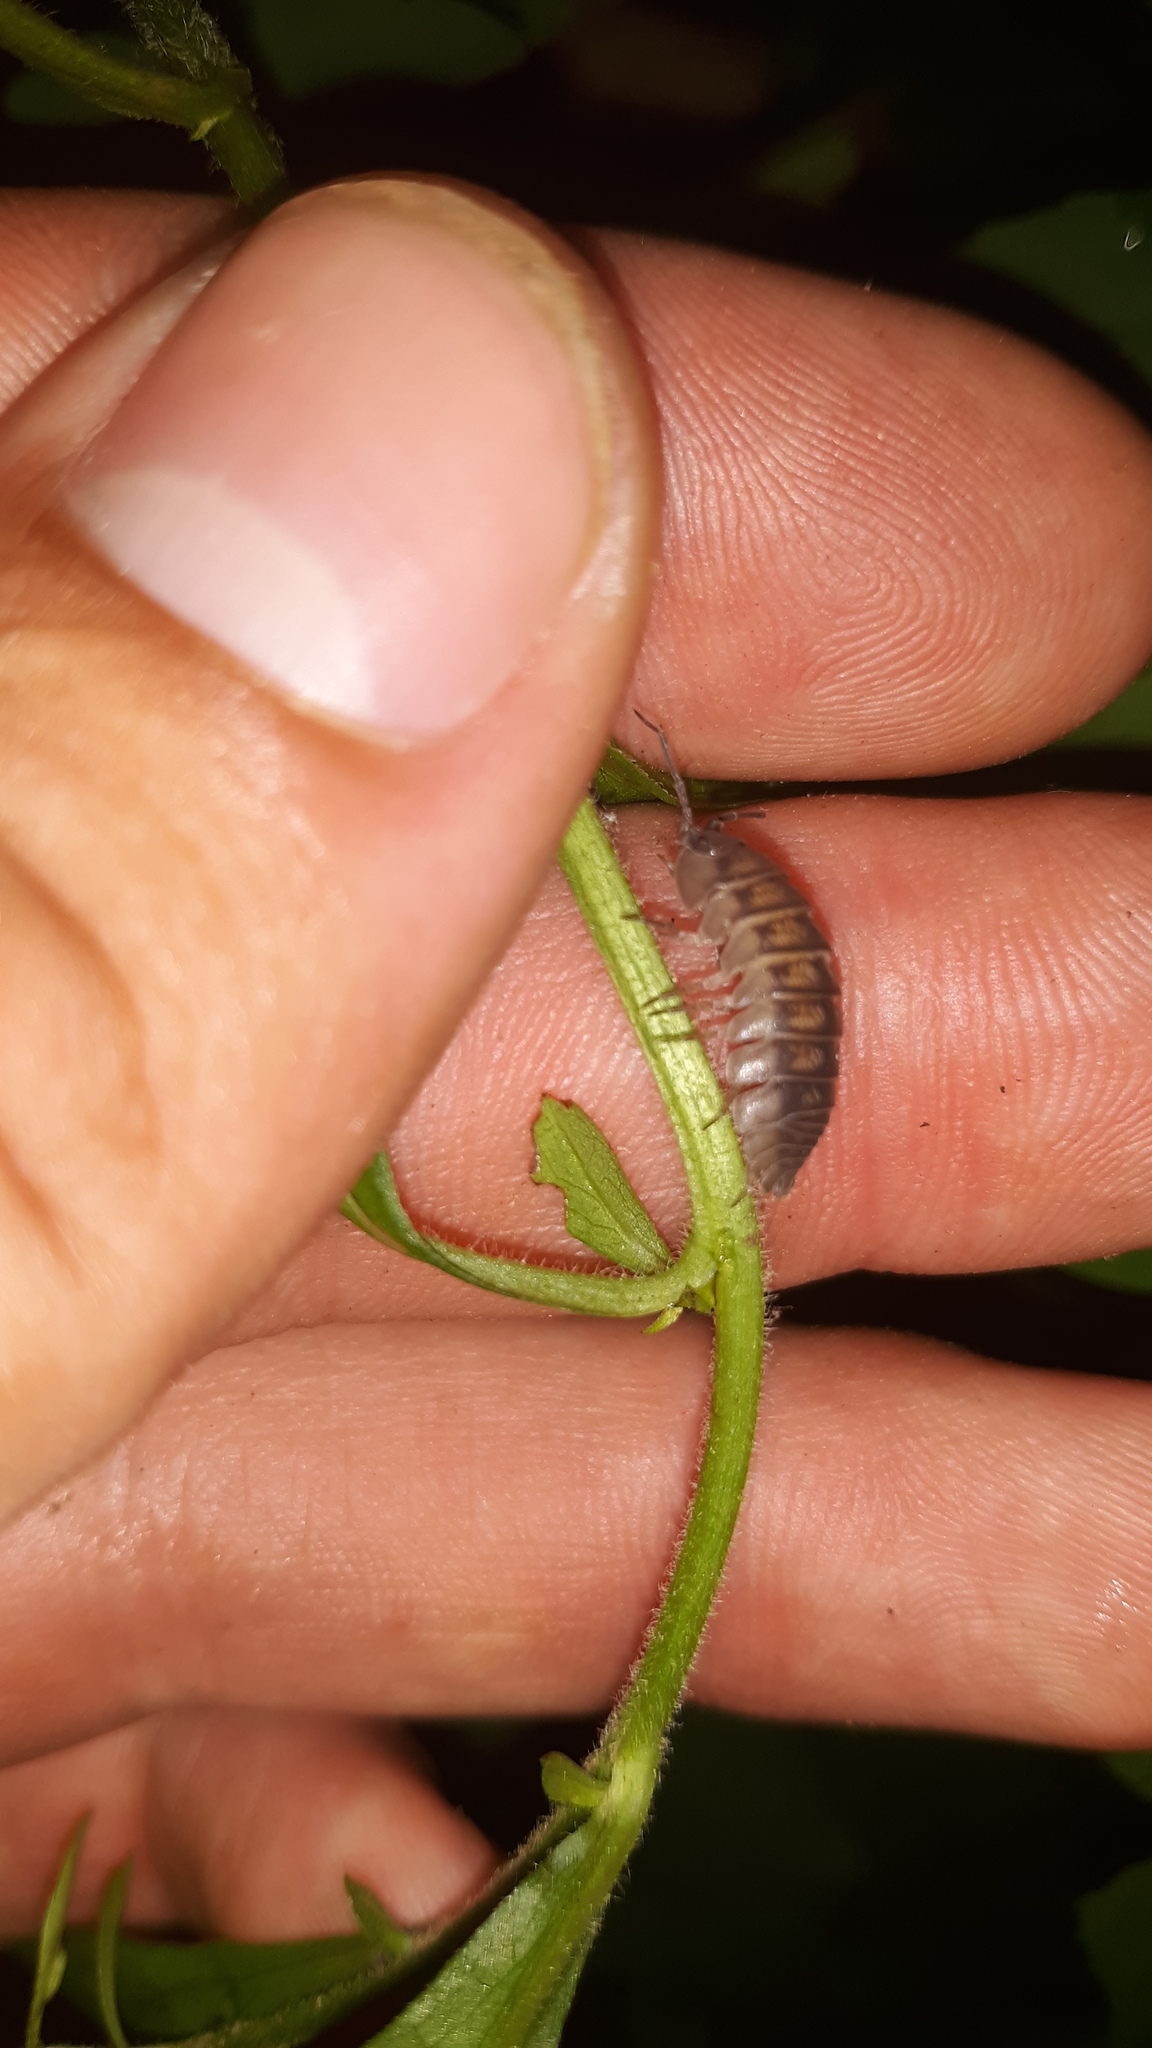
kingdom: Animalia
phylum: Arthropoda
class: Malacostraca
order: Isopoda
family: Armadillidiidae
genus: Armadillidium
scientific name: Armadillidium nasatum
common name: Isopod
